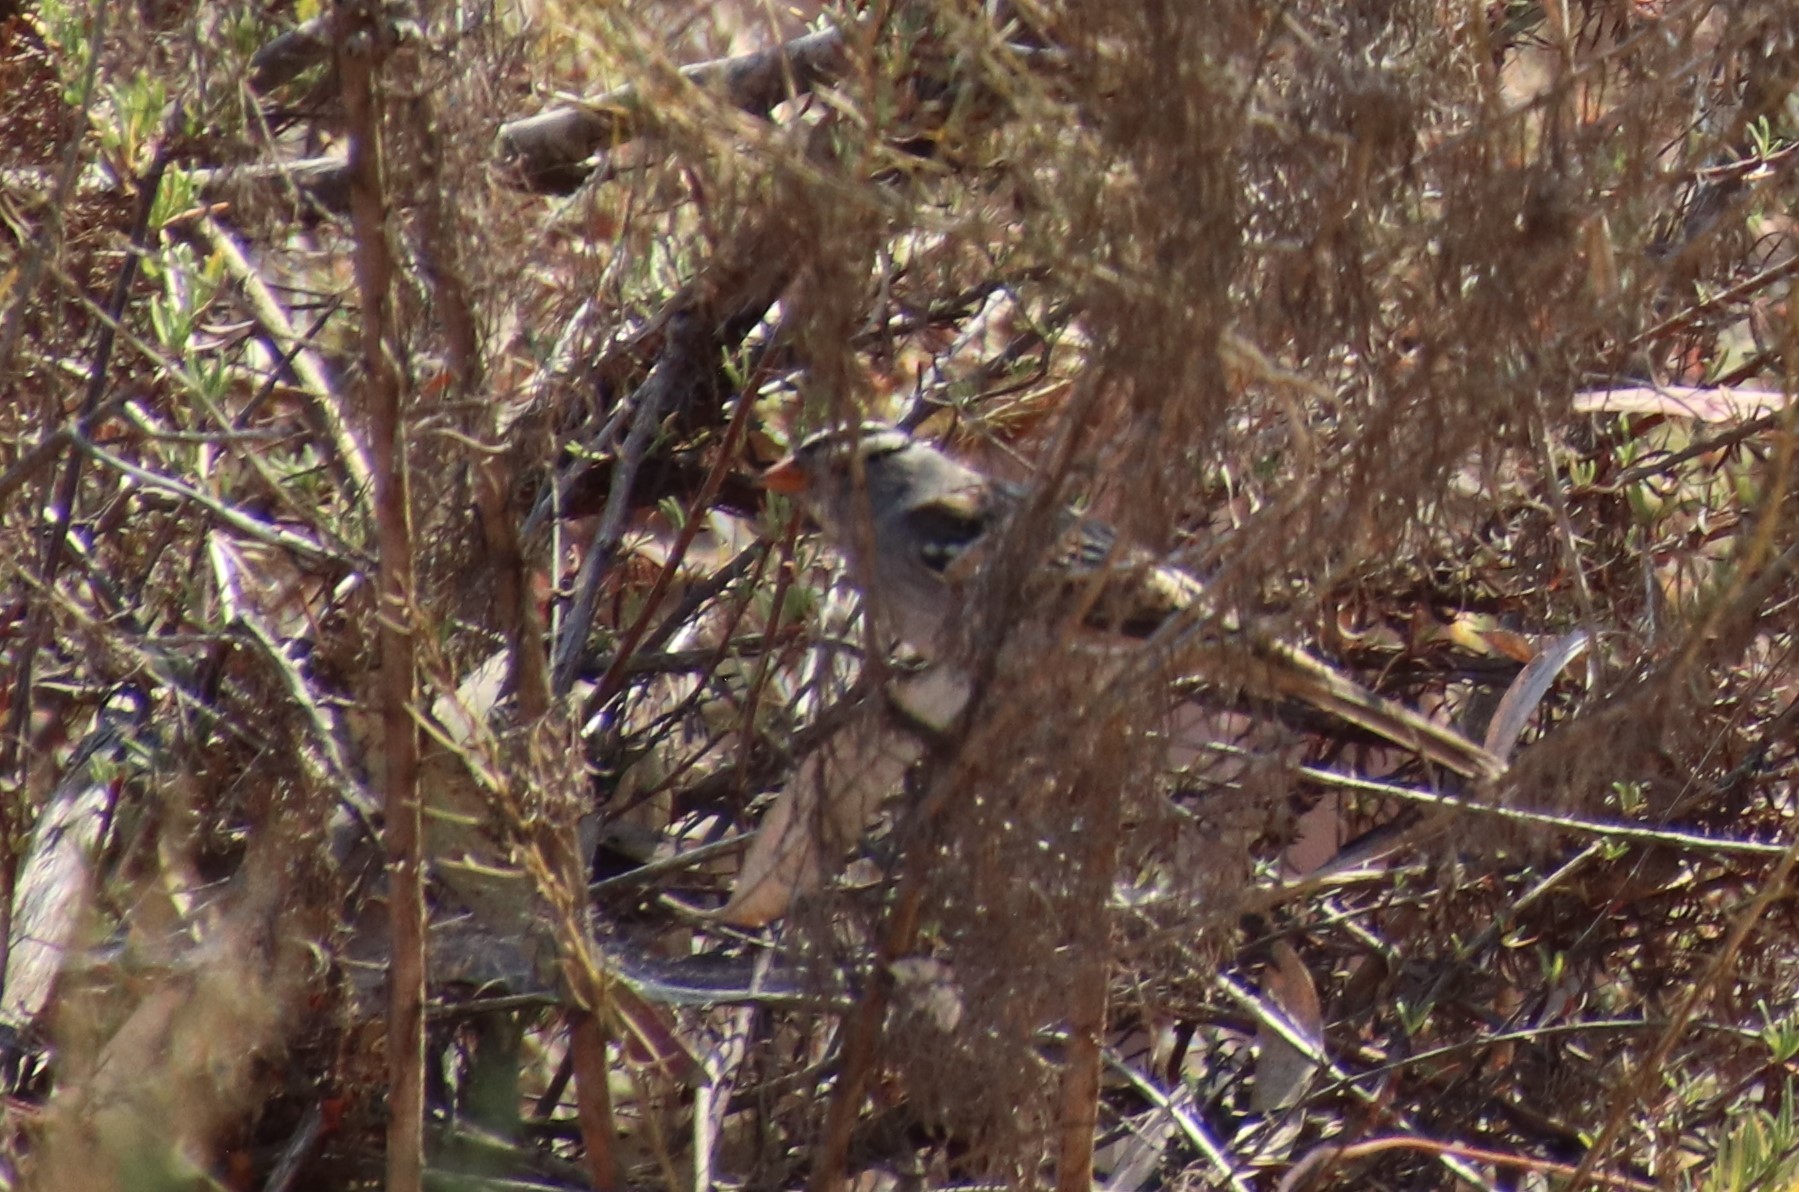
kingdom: Animalia
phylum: Chordata
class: Aves
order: Passeriformes
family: Passerellidae
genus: Zonotrichia
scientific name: Zonotrichia leucophrys
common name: White-crowned sparrow
